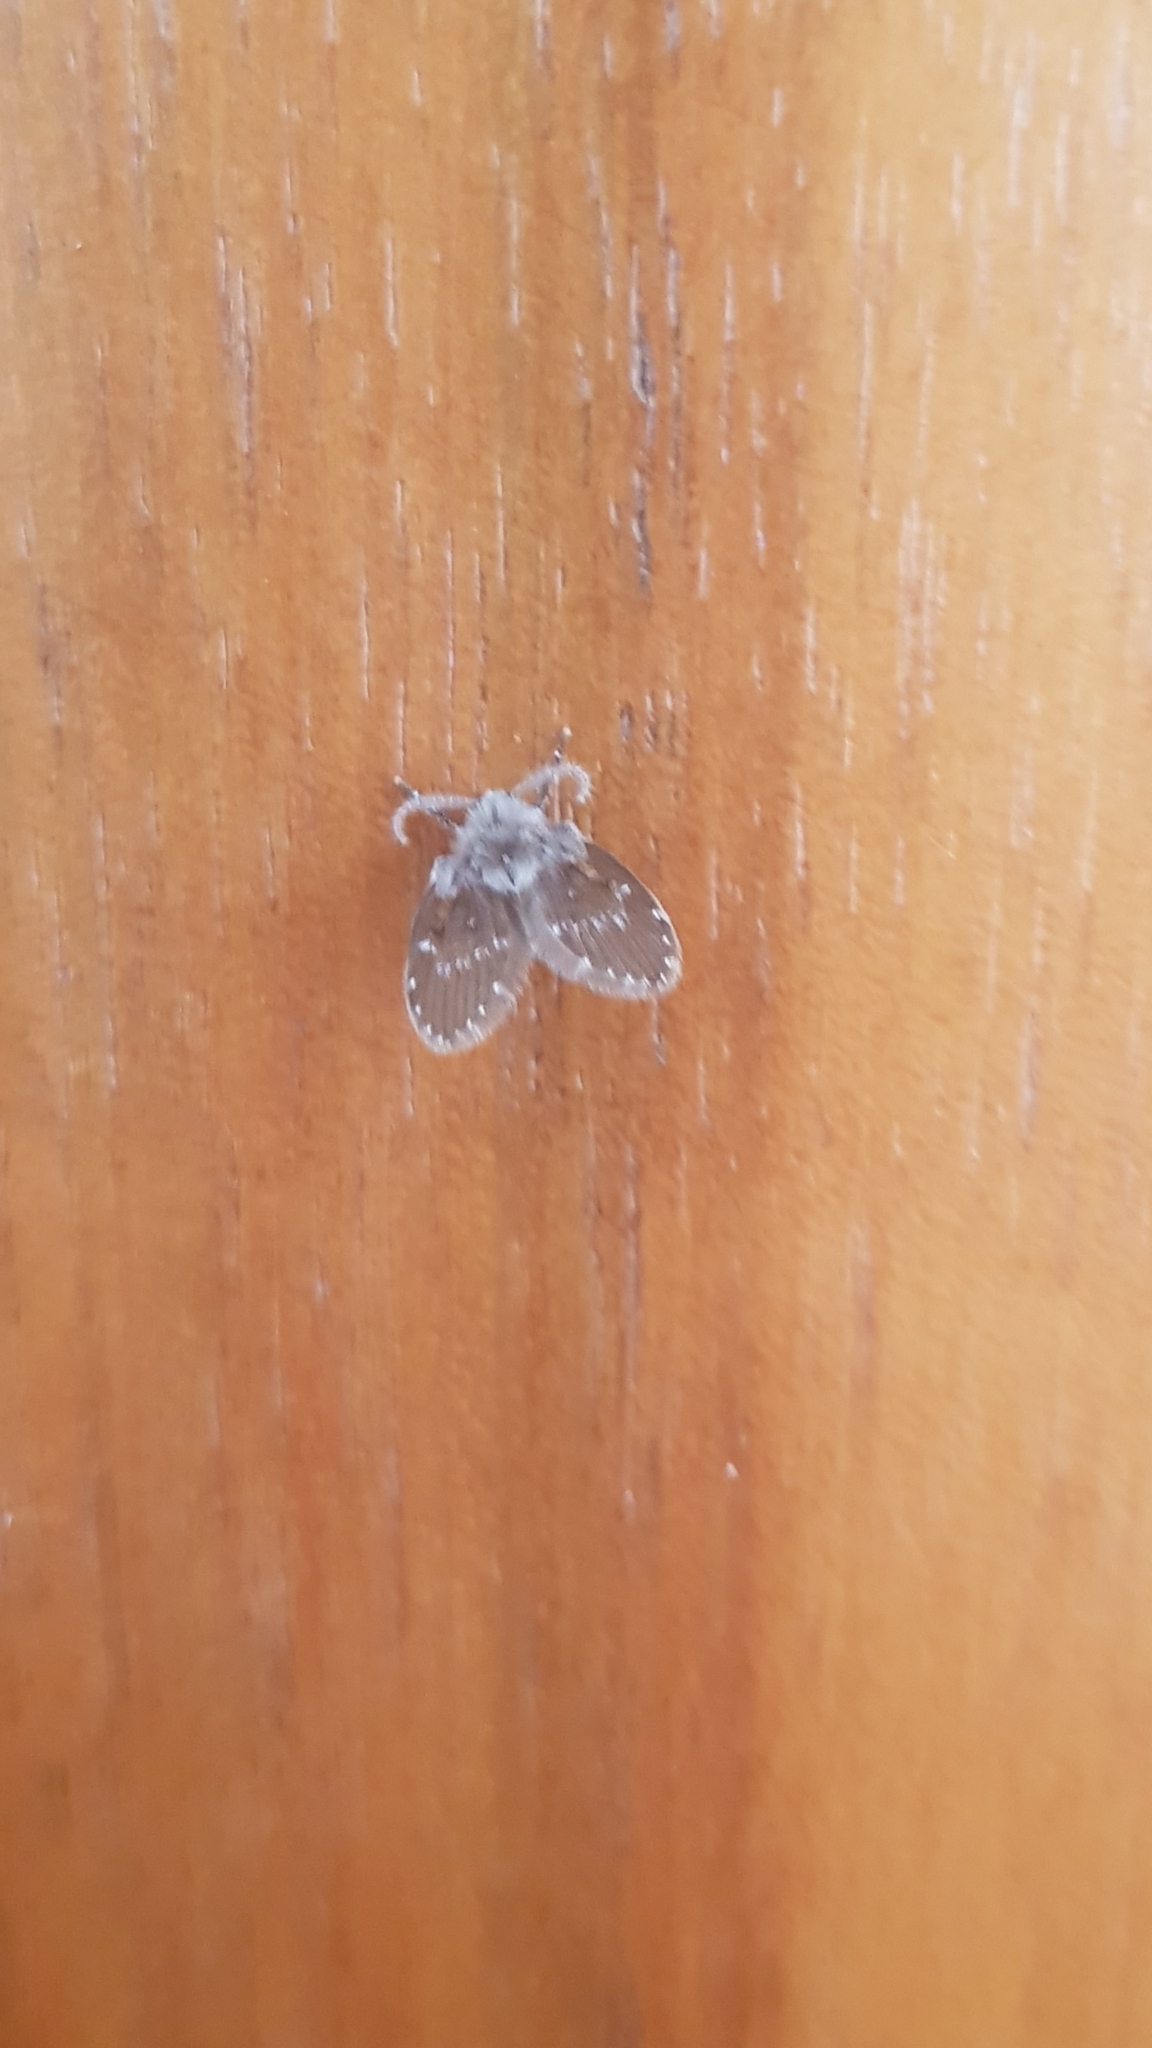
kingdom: Animalia
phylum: Arthropoda
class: Insecta
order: Diptera
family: Psychodidae
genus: Clogmia
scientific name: Clogmia albipunctatus
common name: White-spotted moth fly
